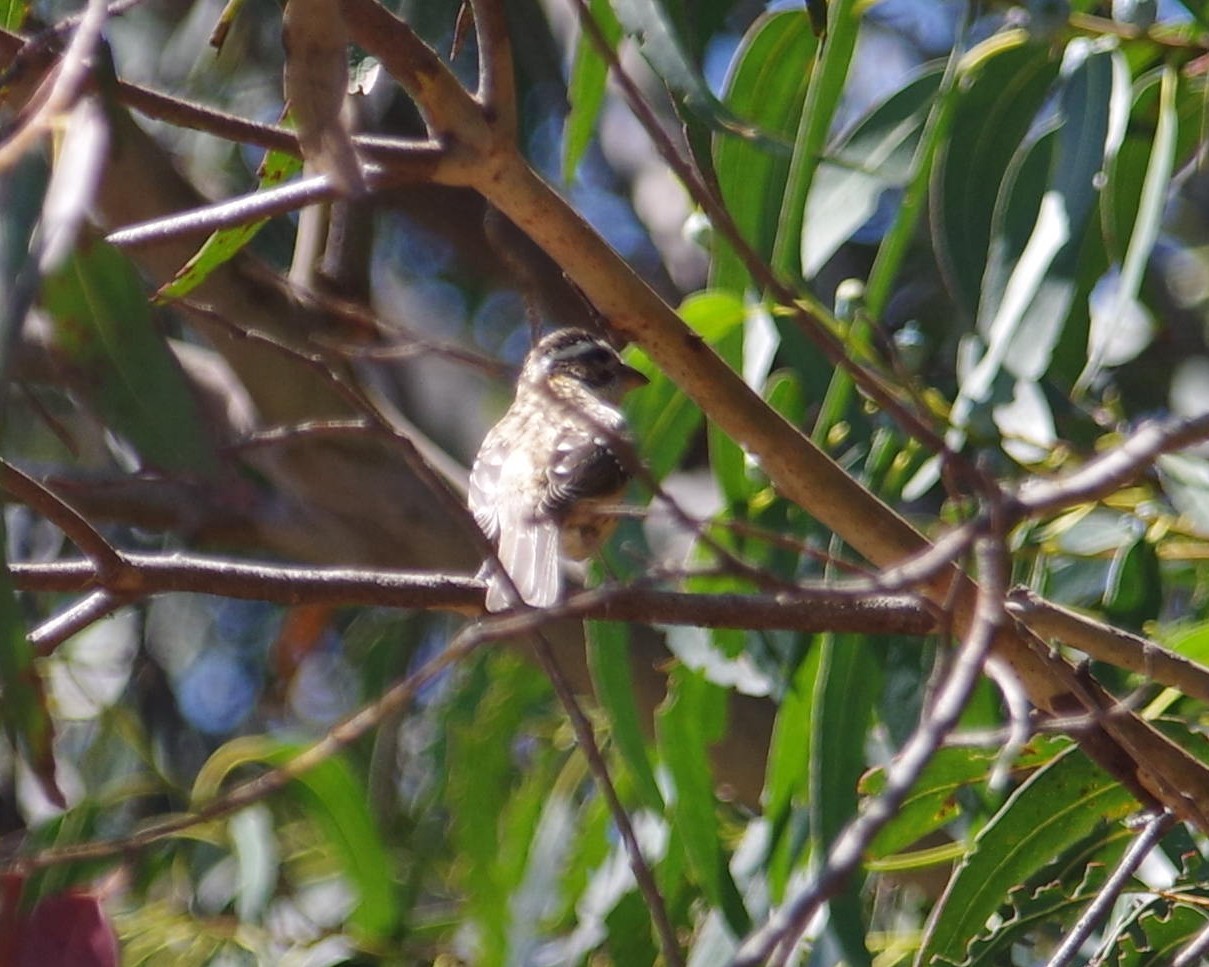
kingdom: Animalia
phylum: Chordata
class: Aves
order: Passeriformes
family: Cardinalidae
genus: Pheucticus
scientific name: Pheucticus melanocephalus
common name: Black-headed grosbeak
